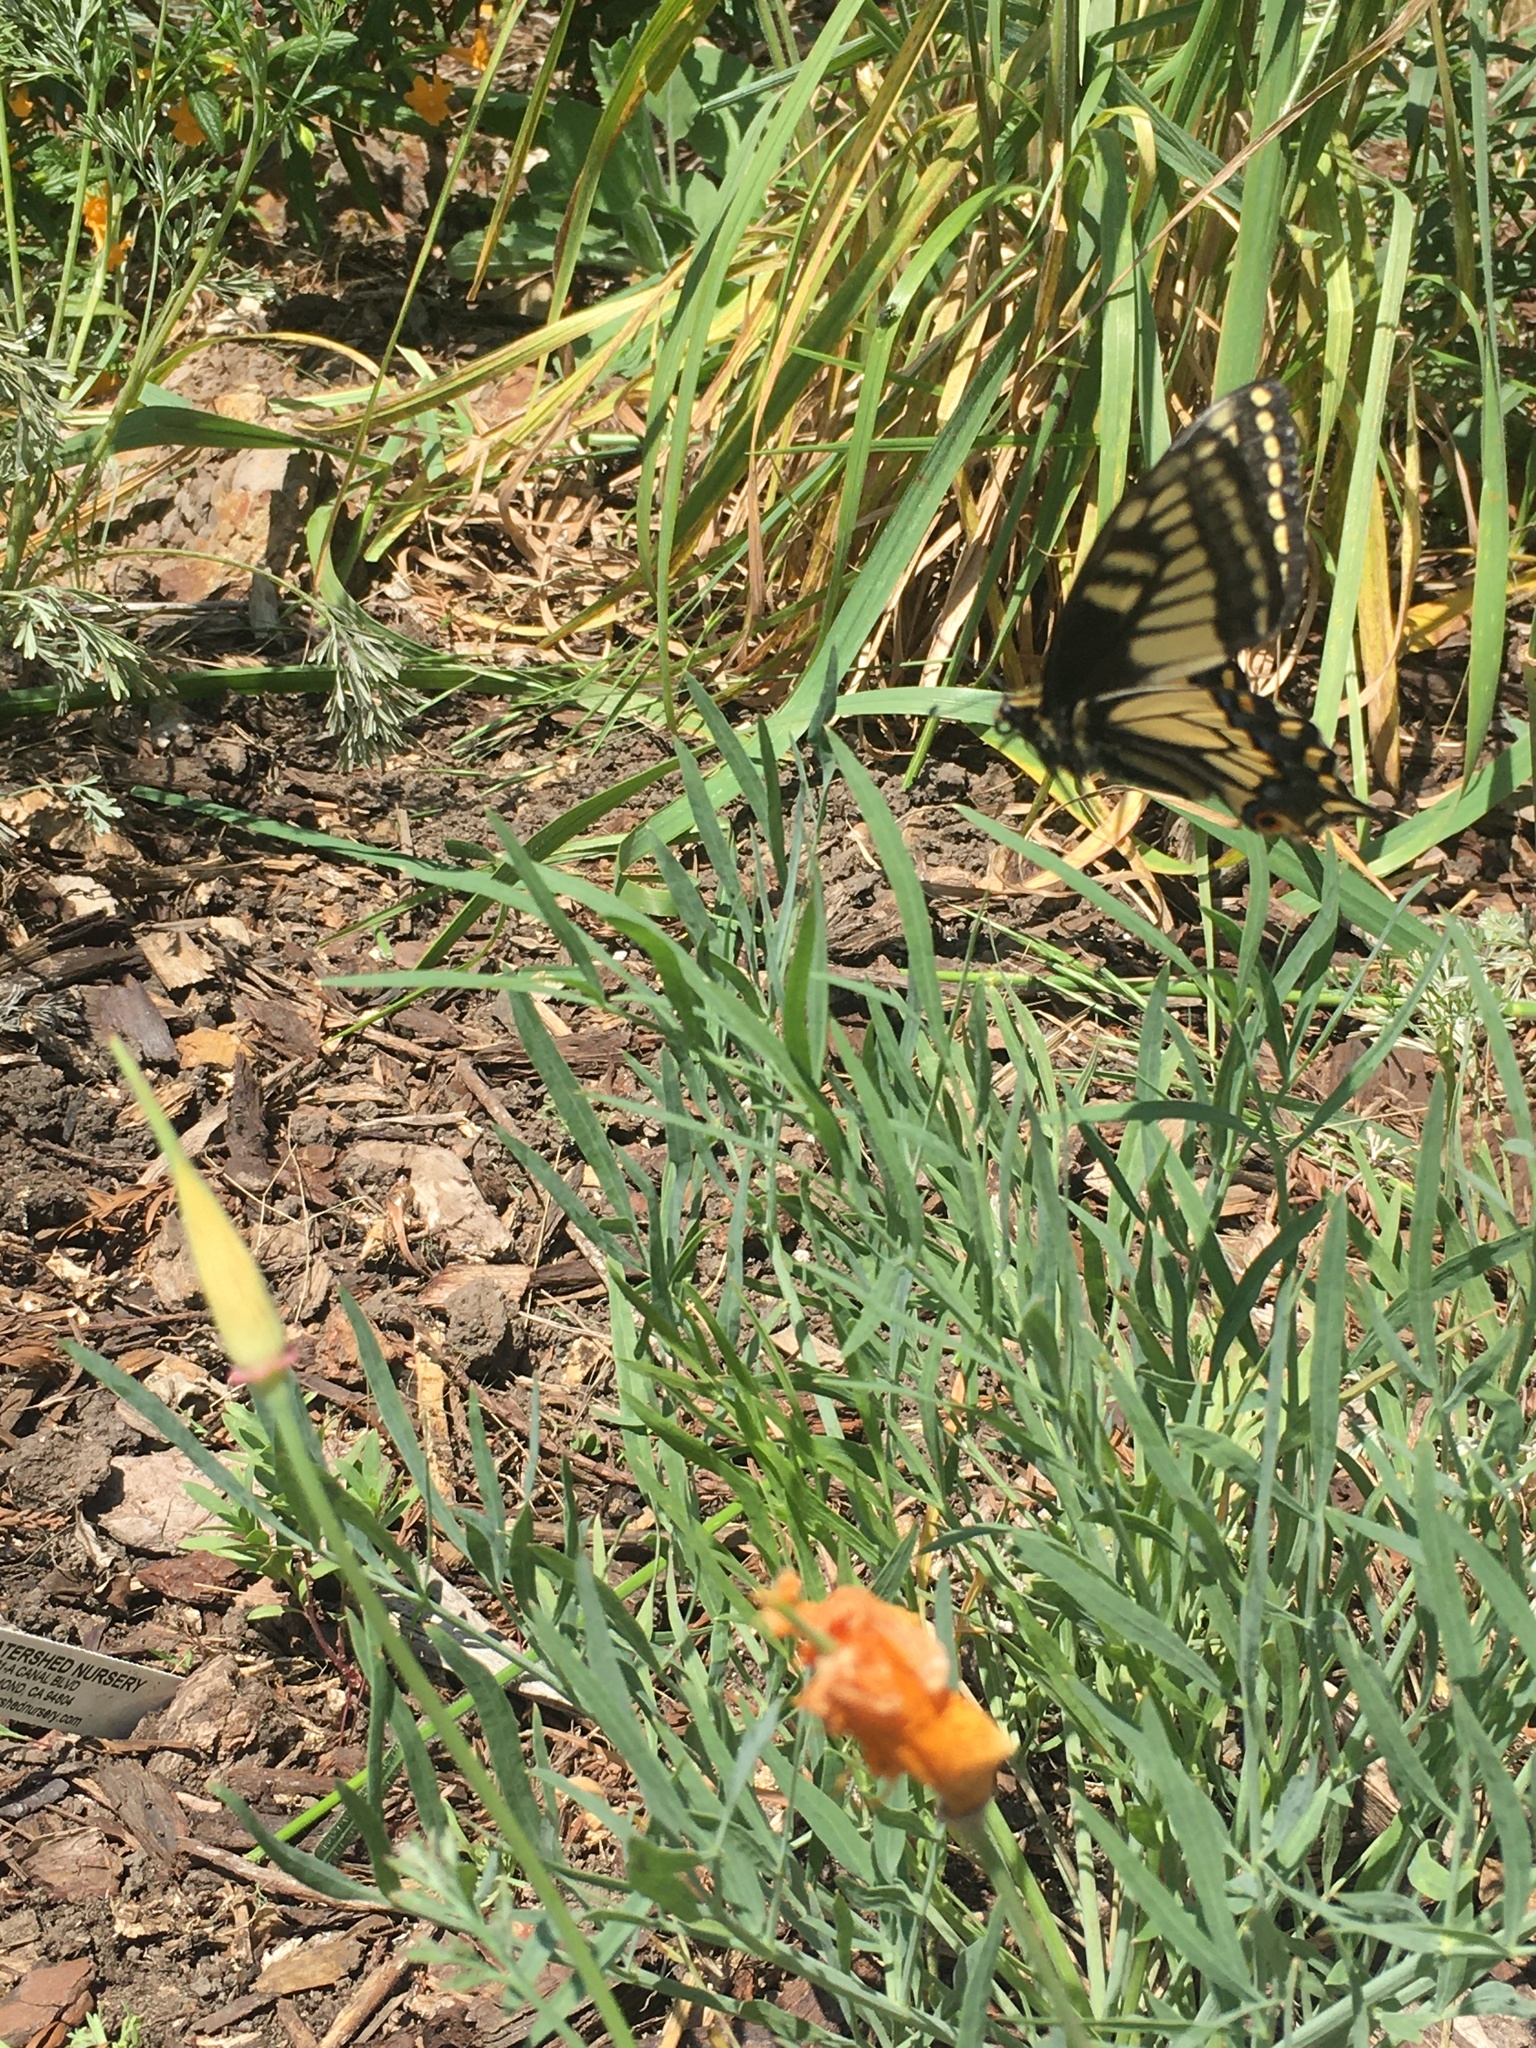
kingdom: Animalia
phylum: Arthropoda
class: Insecta
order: Lepidoptera
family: Papilionidae
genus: Papilio
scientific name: Papilio zelicaon
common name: Anise swallowtail
